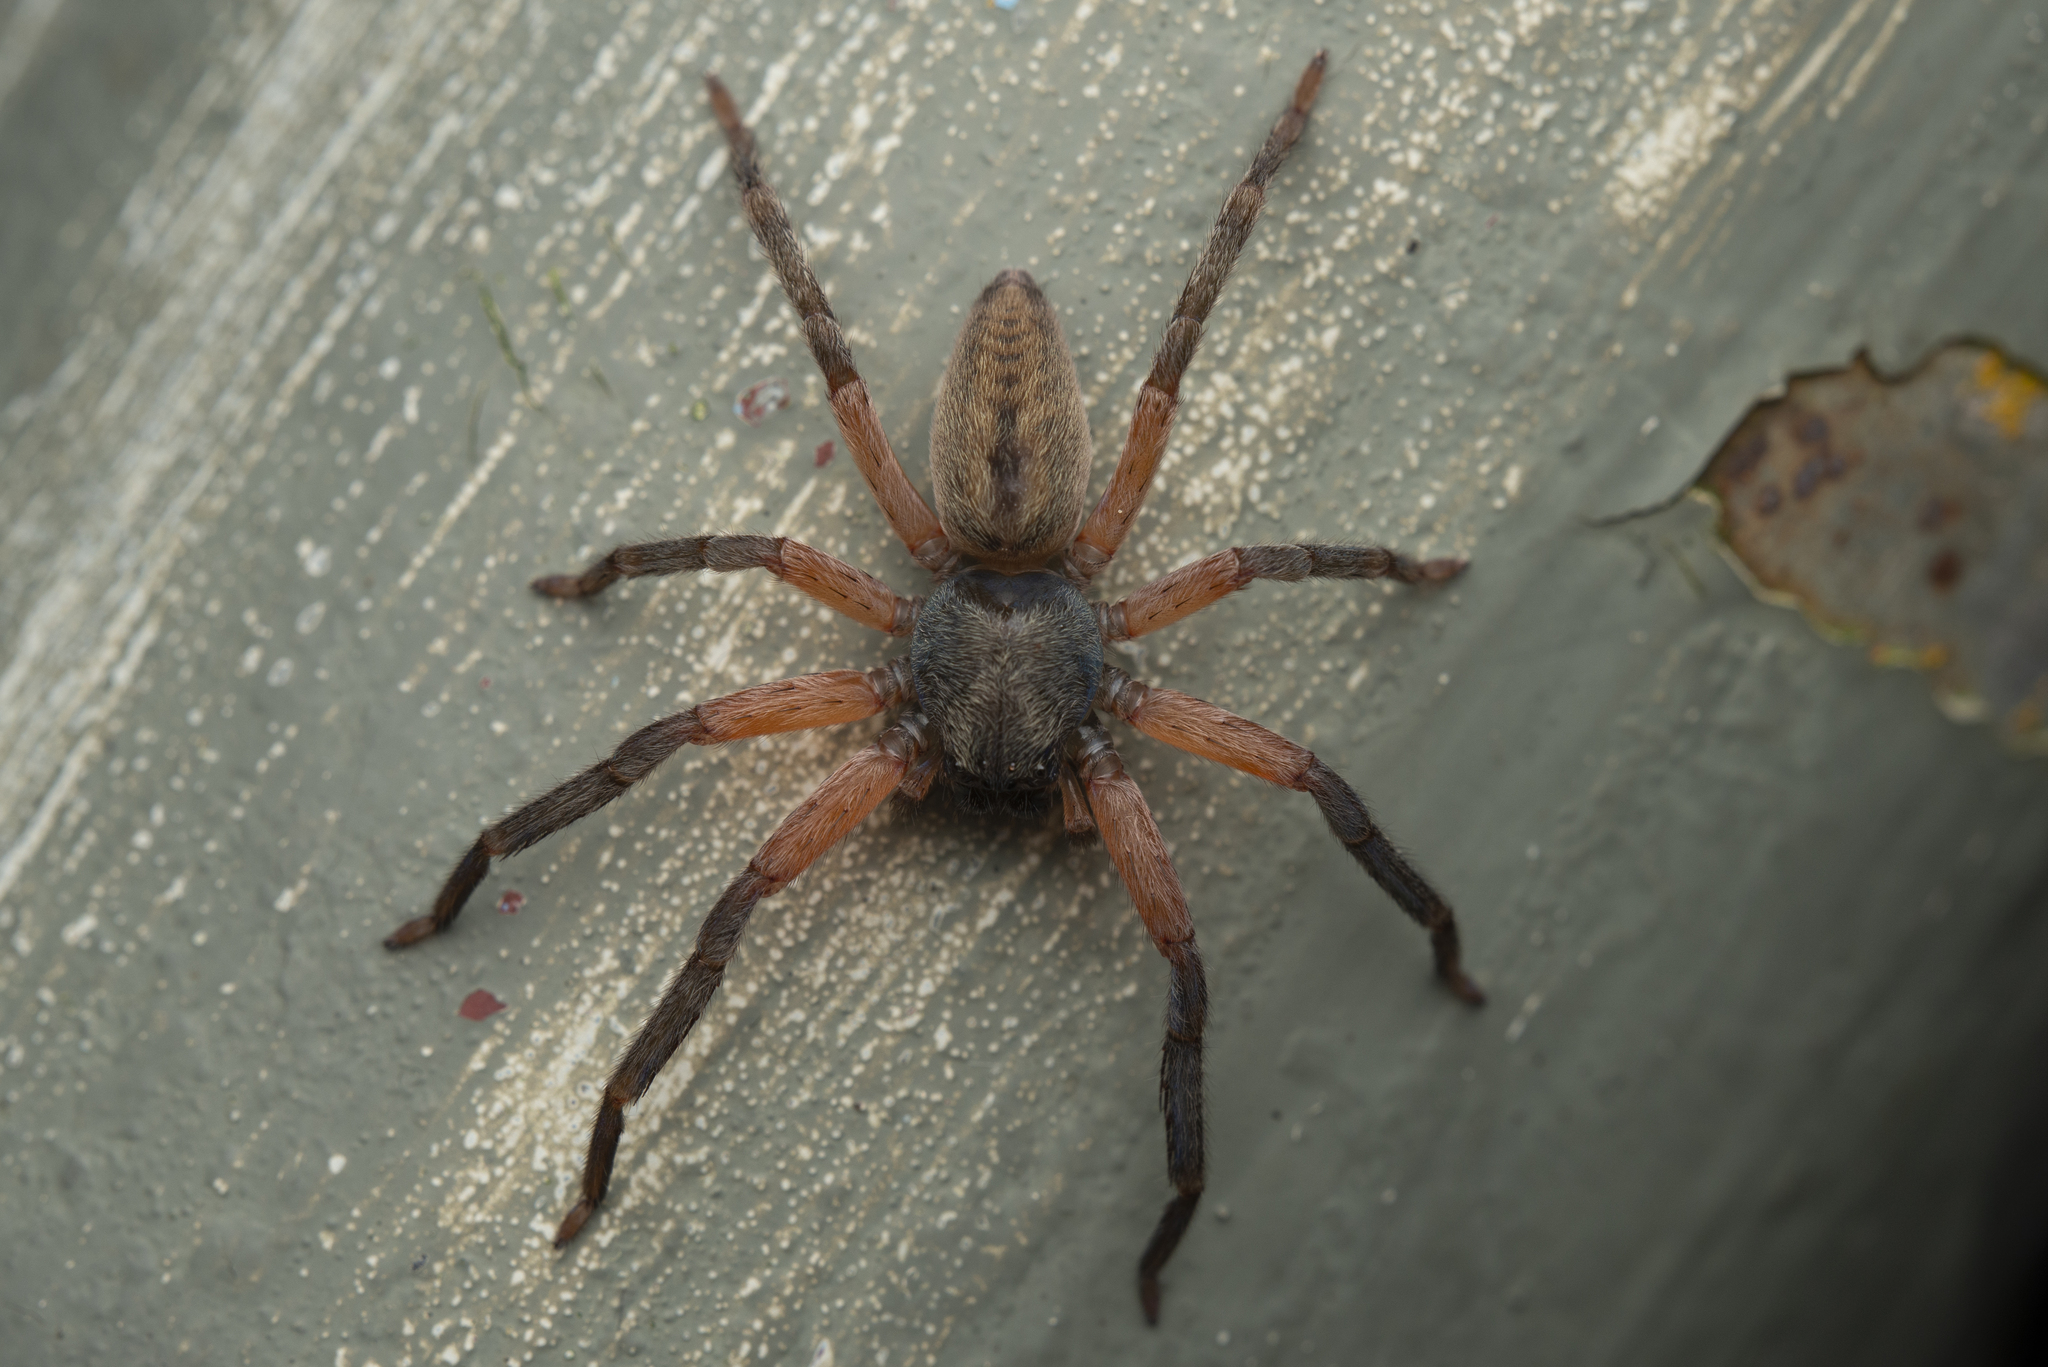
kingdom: Animalia
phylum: Arthropoda
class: Arachnida
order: Araneae
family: Sparassidae
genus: Thelcticopis
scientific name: Thelcticopis severa
